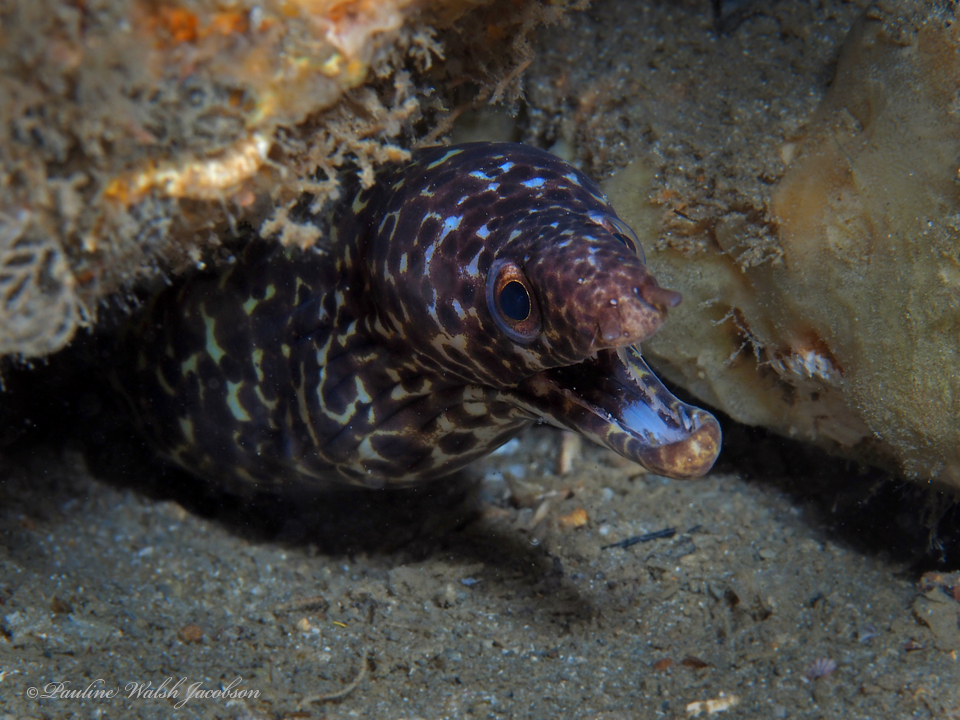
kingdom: Animalia
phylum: Chordata
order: Anguilliformes
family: Muraenidae
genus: Gymnothorax
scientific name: Gymnothorax moringa
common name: Spotted moray
